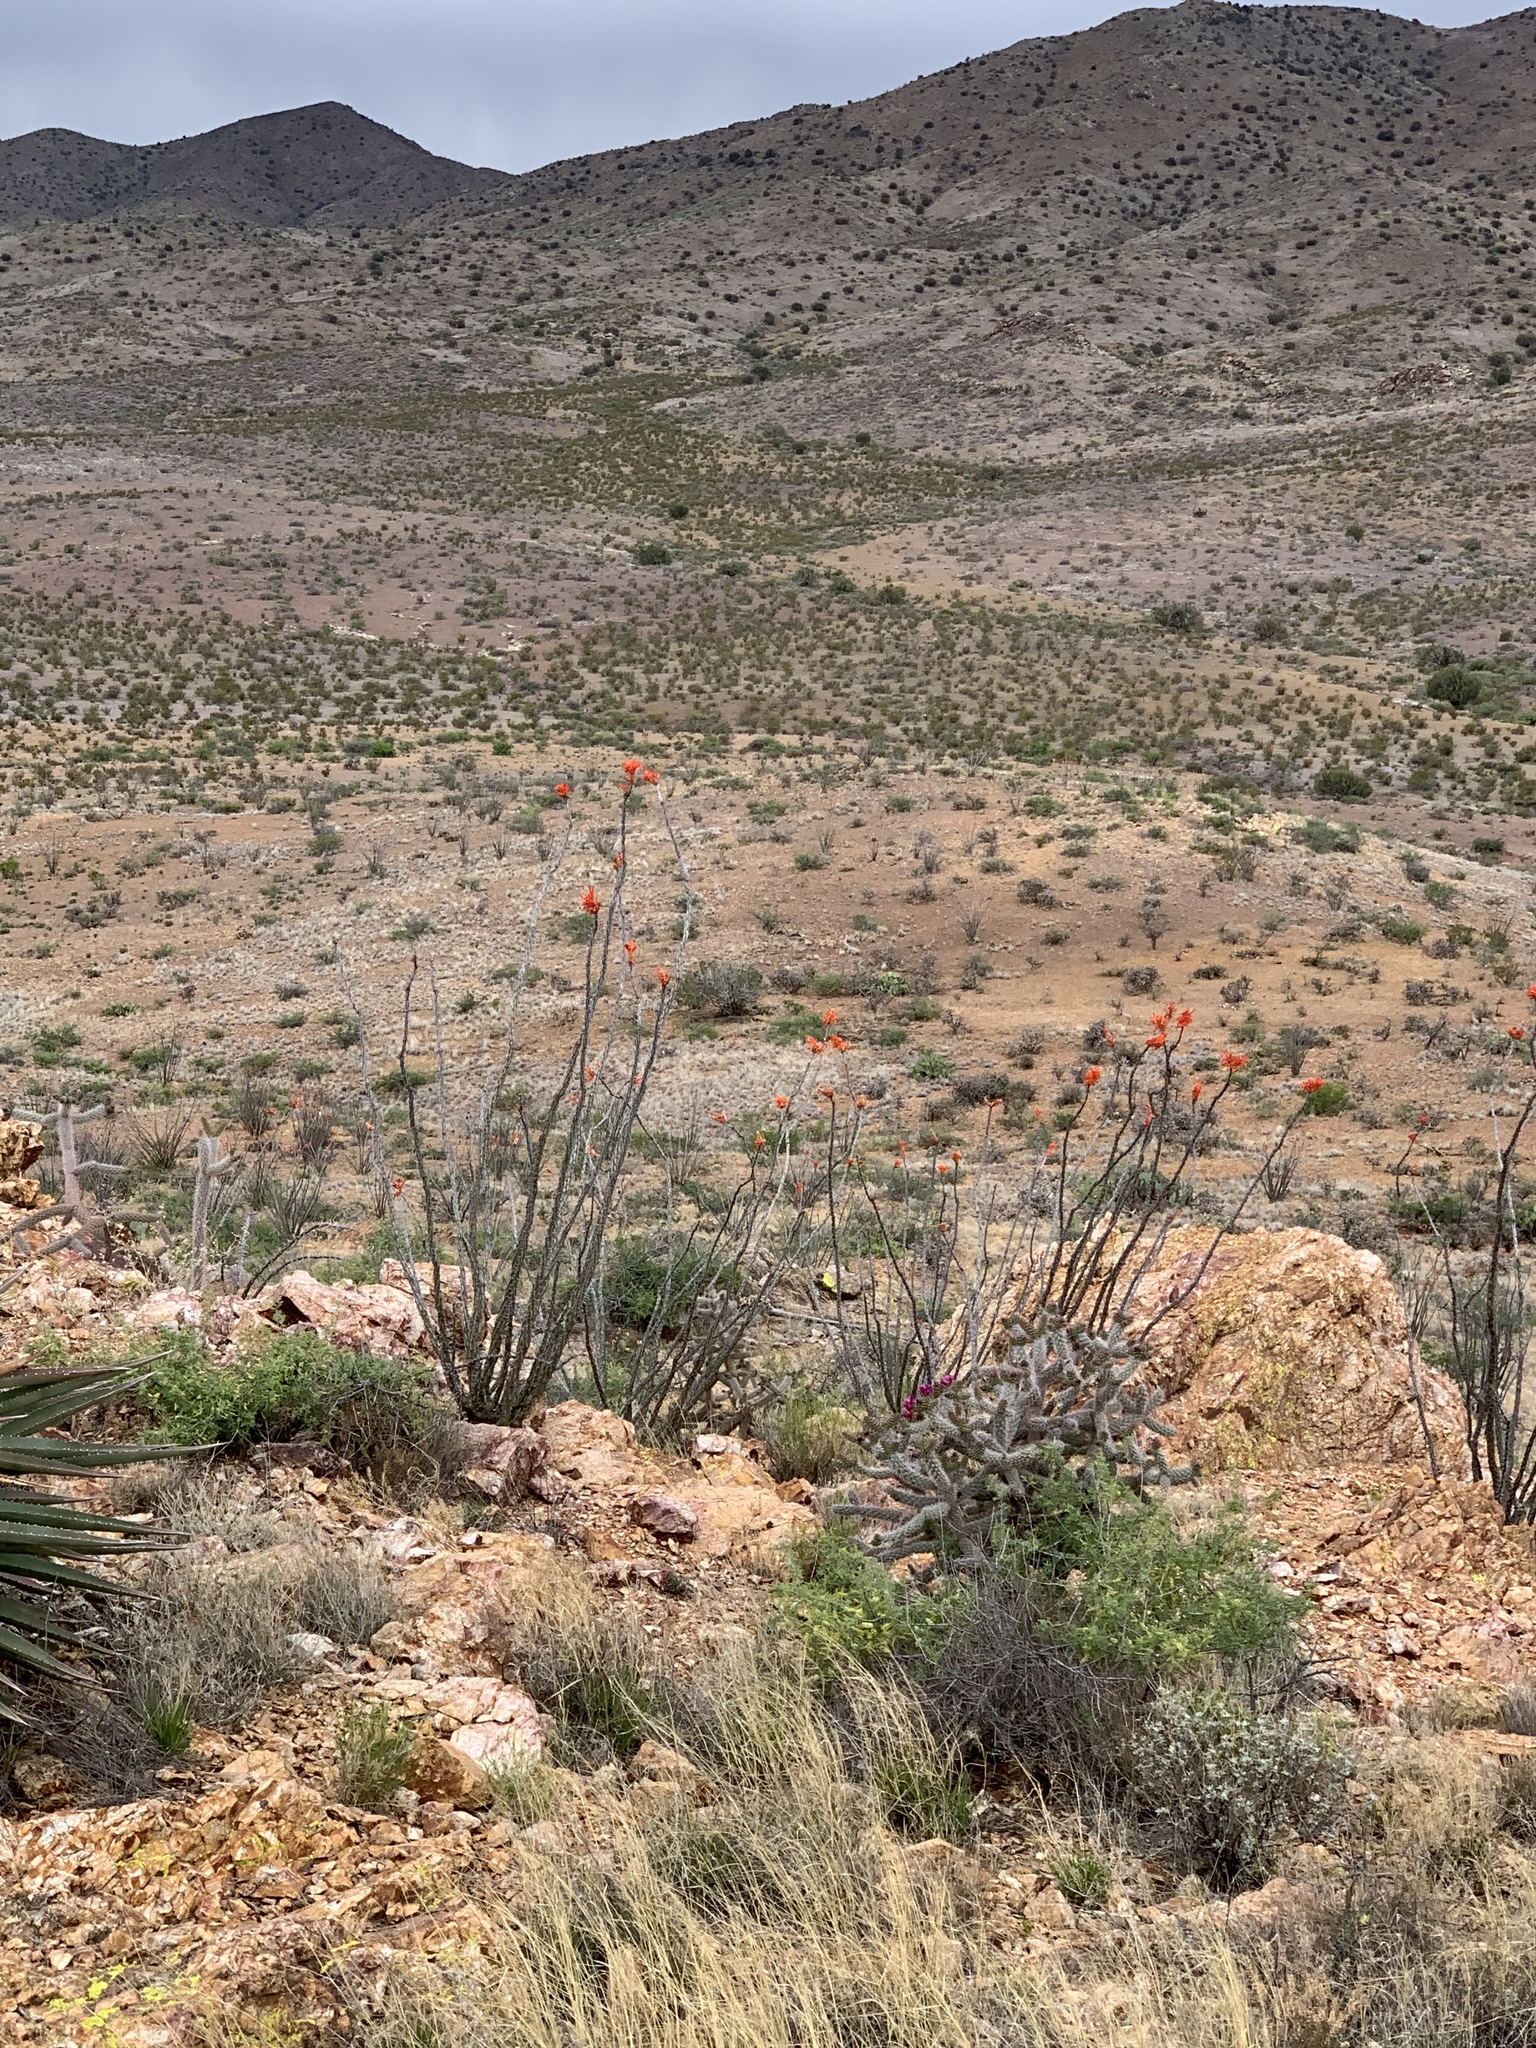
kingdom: Plantae
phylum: Tracheophyta
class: Magnoliopsida
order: Ericales
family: Fouquieriaceae
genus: Fouquieria
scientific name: Fouquieria splendens
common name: Vine-cactus
